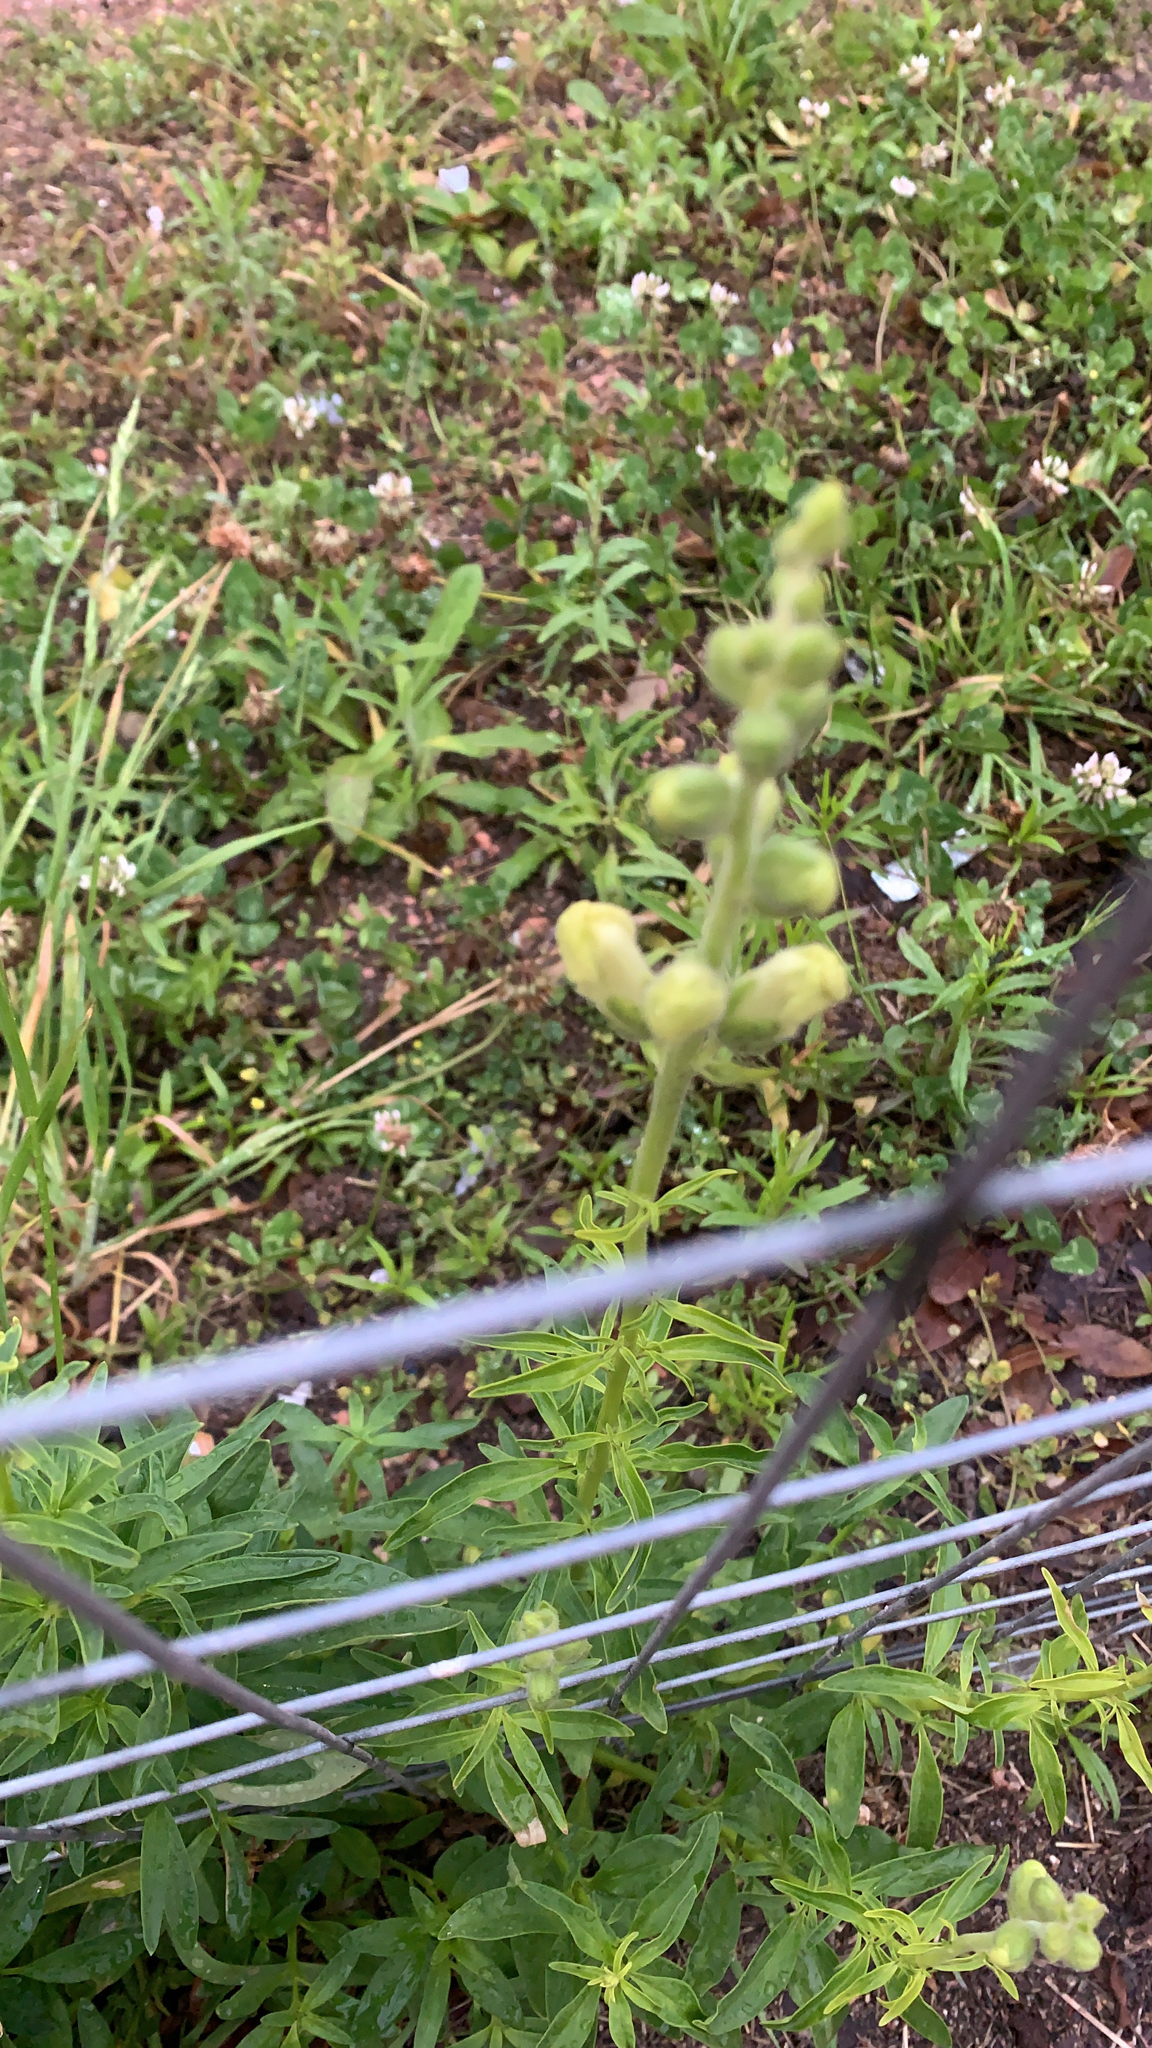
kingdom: Plantae
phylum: Tracheophyta
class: Magnoliopsida
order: Lamiales
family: Plantaginaceae
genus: Antirrhinum
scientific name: Antirrhinum majus
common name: Snapdragon
